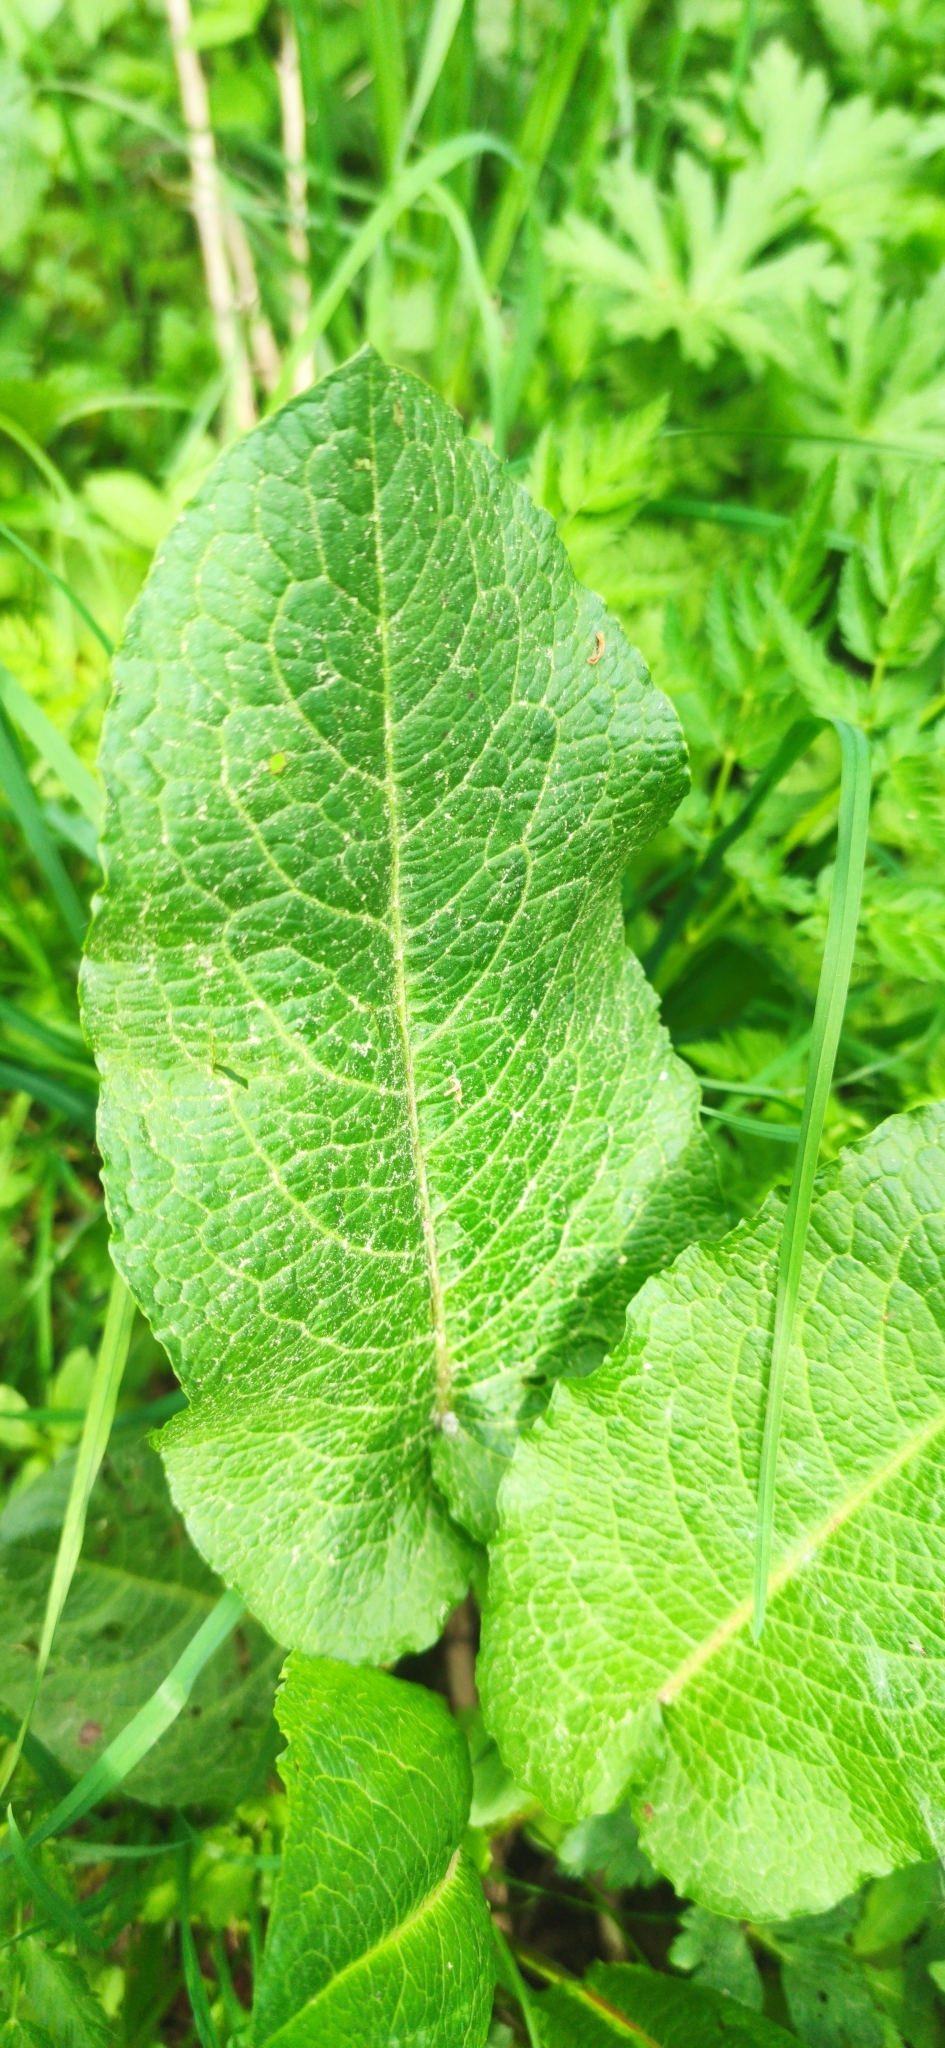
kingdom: Plantae
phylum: Tracheophyta
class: Magnoliopsida
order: Caryophyllales
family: Polygonaceae
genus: Rumex
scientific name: Rumex obtusifolius
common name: Bitter dock
